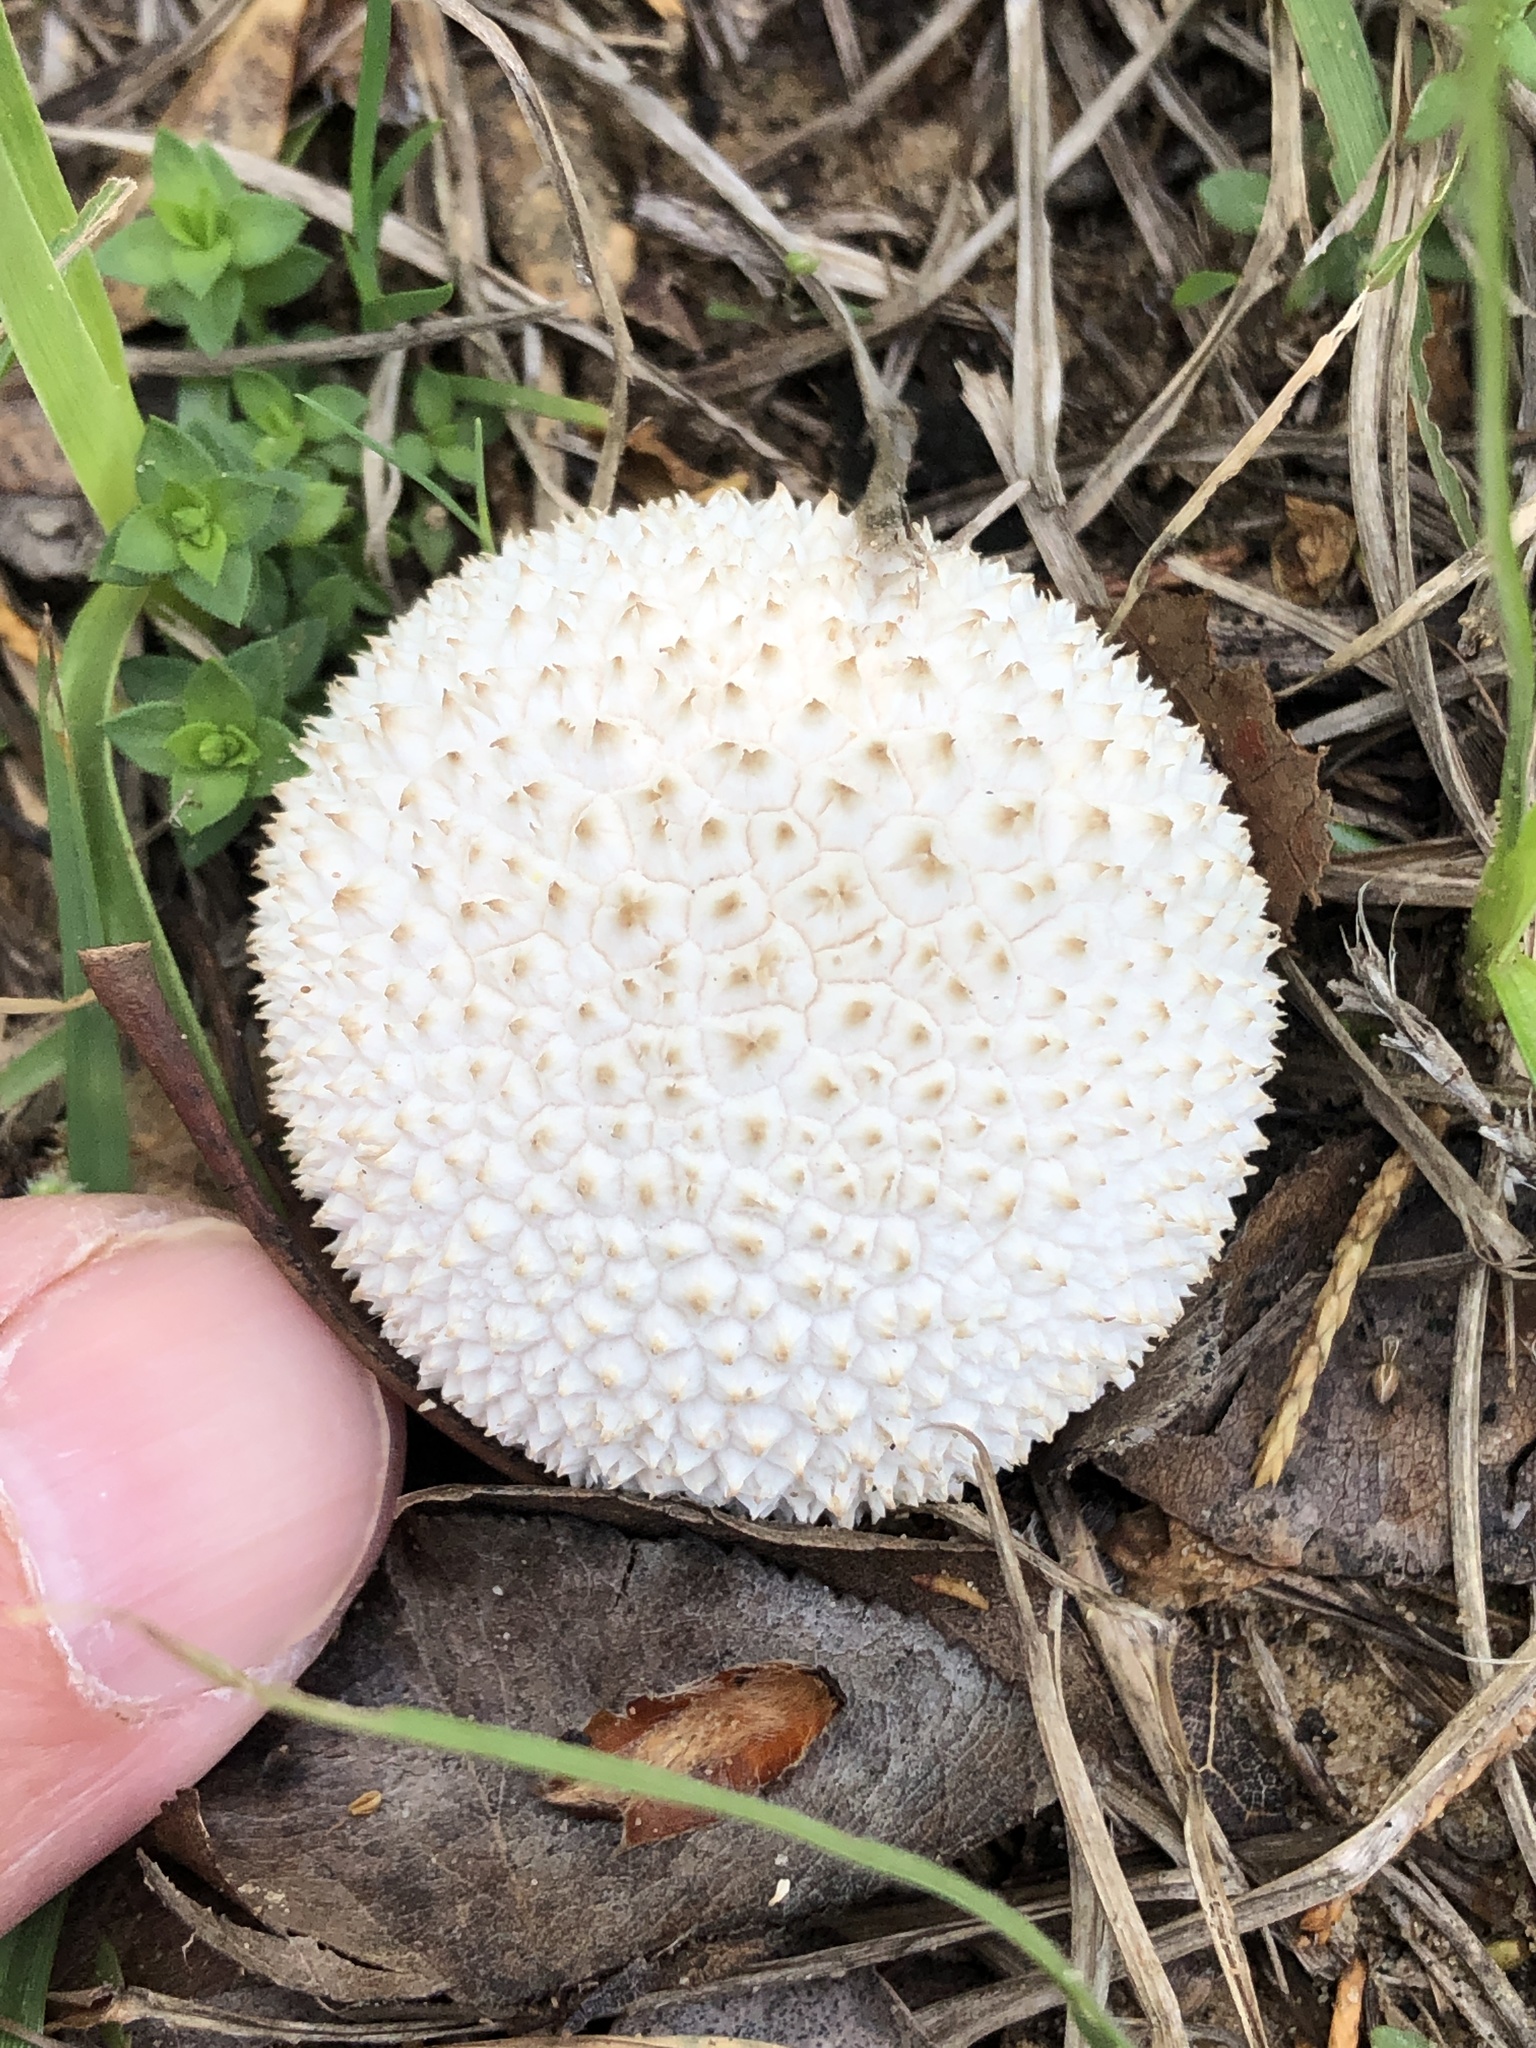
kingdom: Fungi
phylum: Basidiomycota
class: Agaricomycetes
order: Agaricales
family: Agaricaceae
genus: Lycoperdon
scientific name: Lycoperdon marginatum
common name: Peeling puffball
